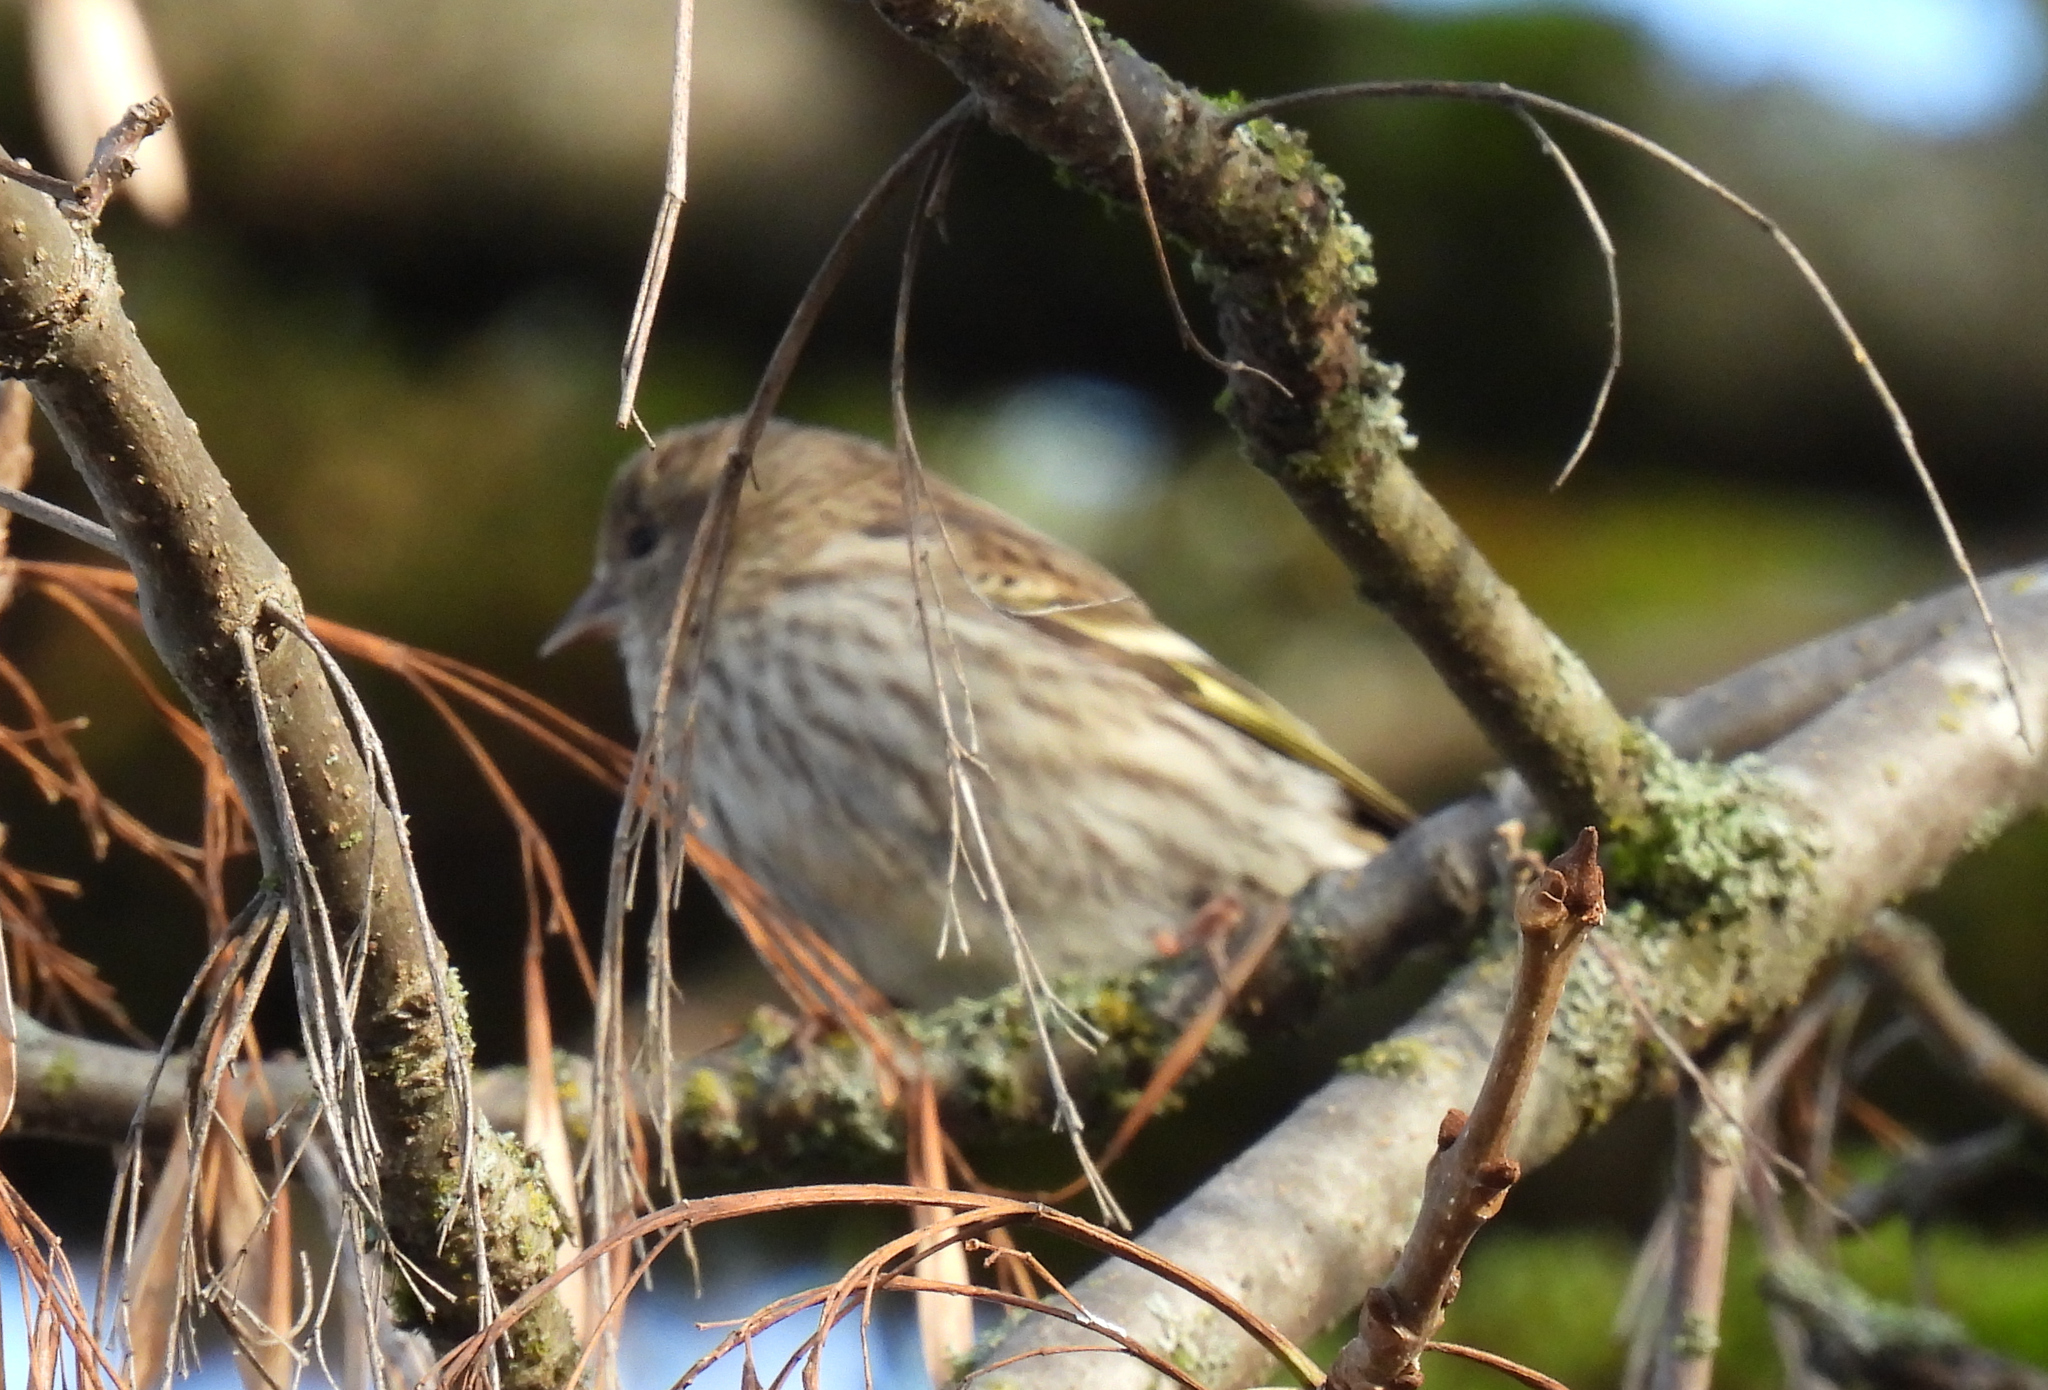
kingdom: Animalia
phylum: Chordata
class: Aves
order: Passeriformes
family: Fringillidae
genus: Spinus
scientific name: Spinus pinus
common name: Pine siskin
